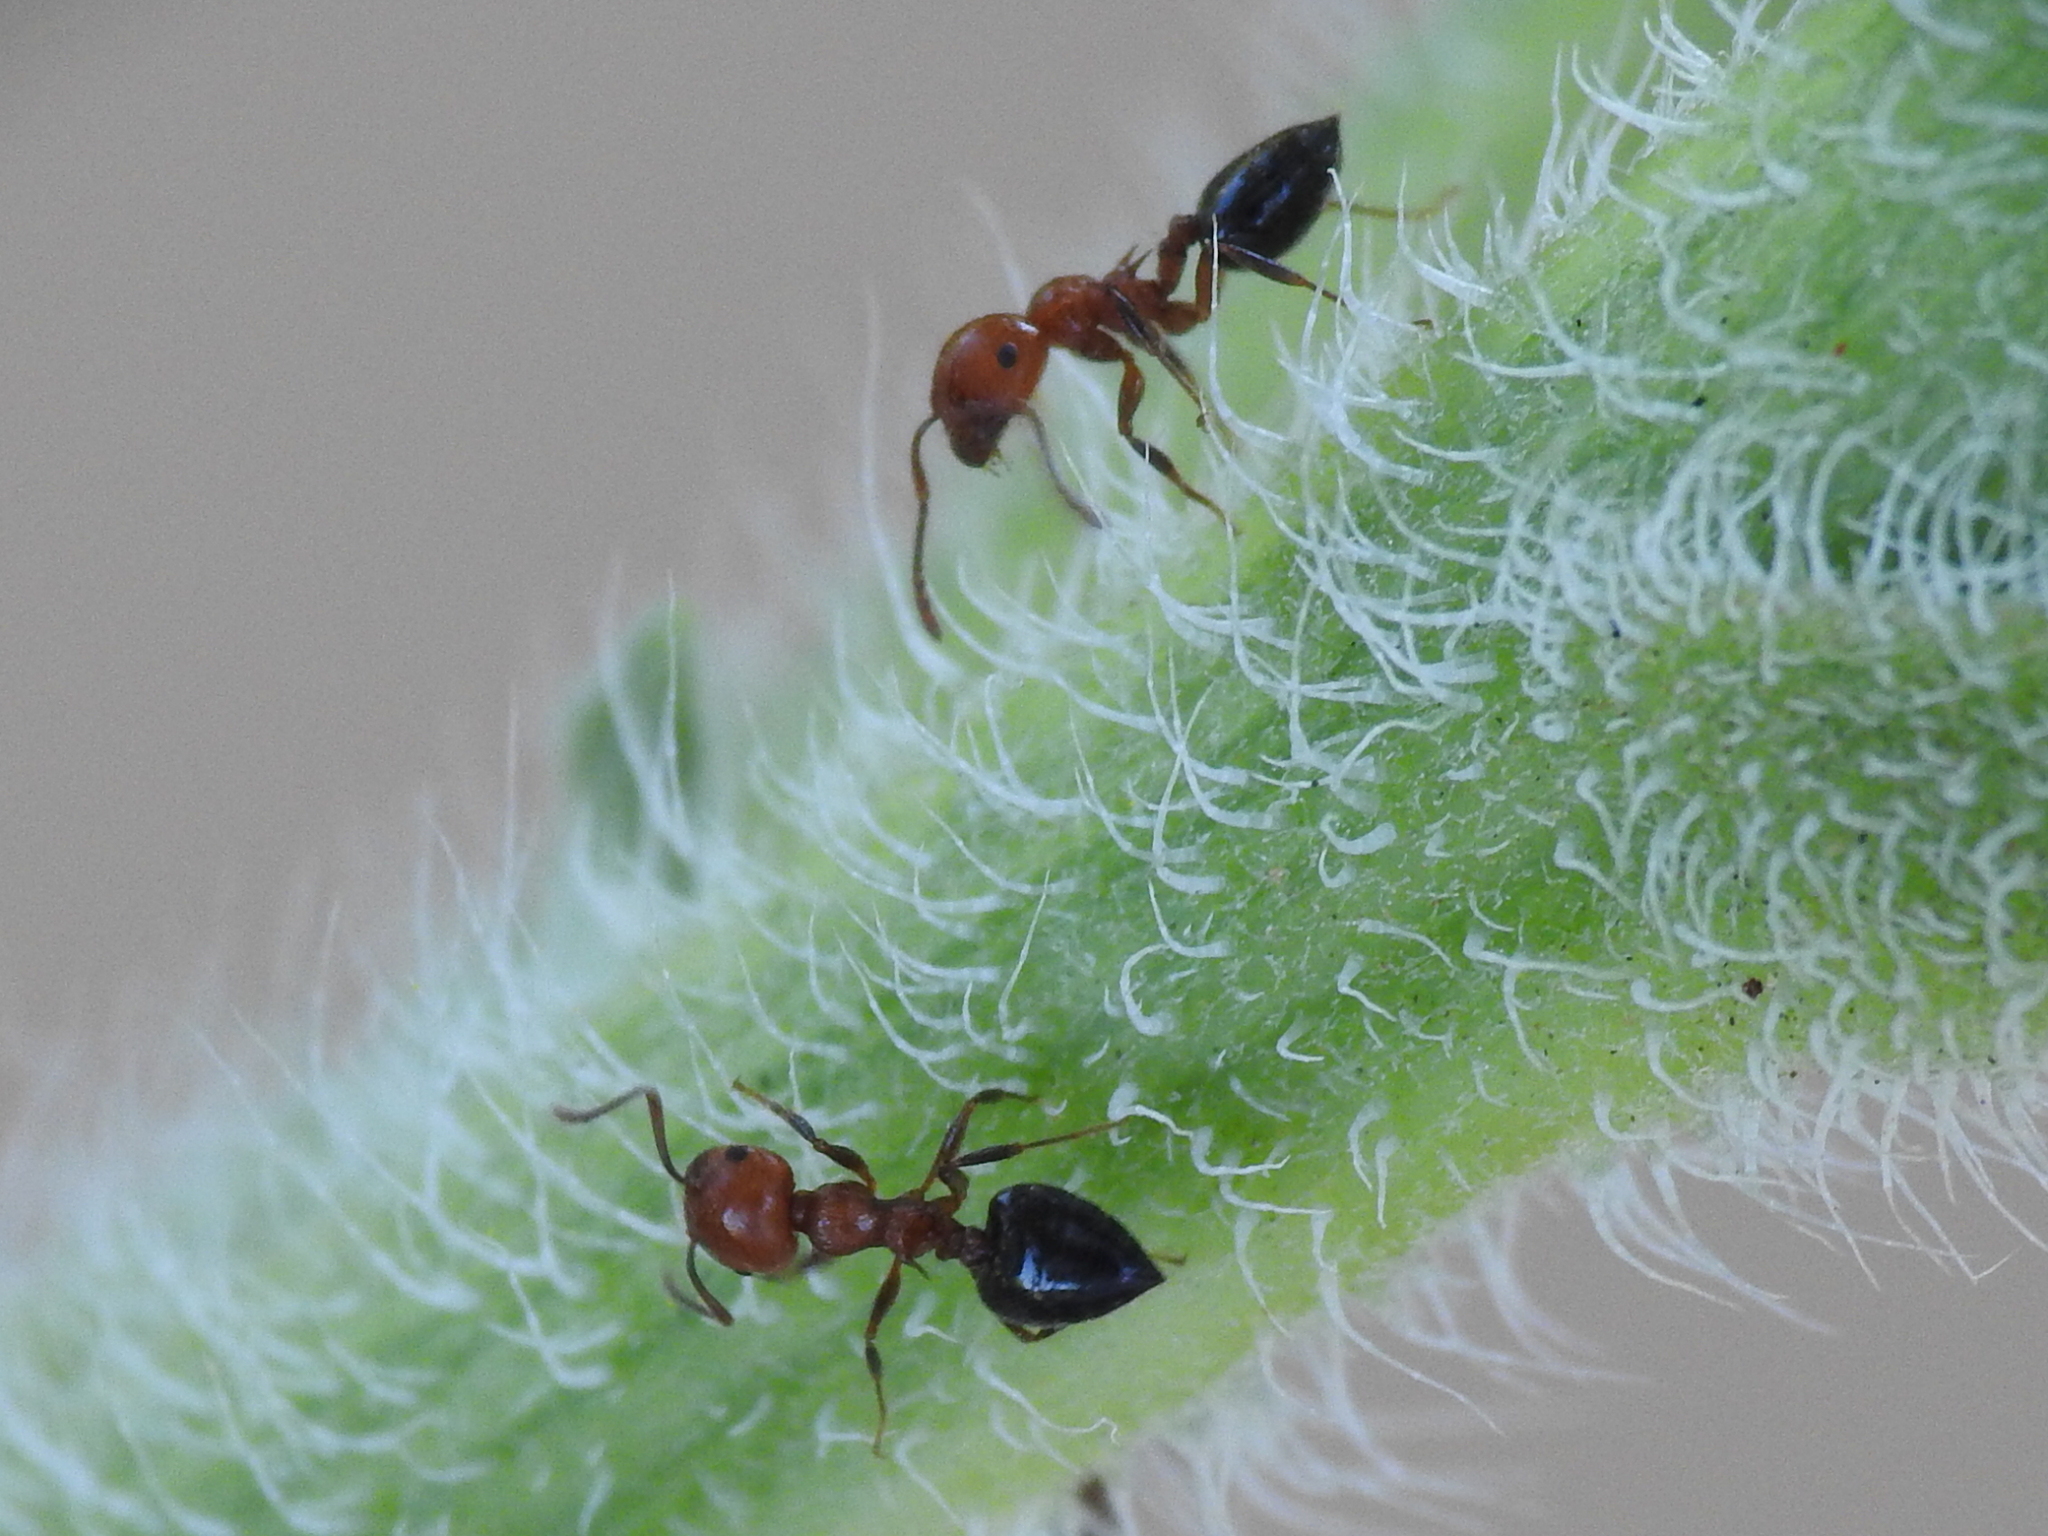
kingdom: Animalia
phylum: Arthropoda
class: Insecta
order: Hymenoptera
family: Formicidae
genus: Crematogaster
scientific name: Crematogaster laeviuscula
